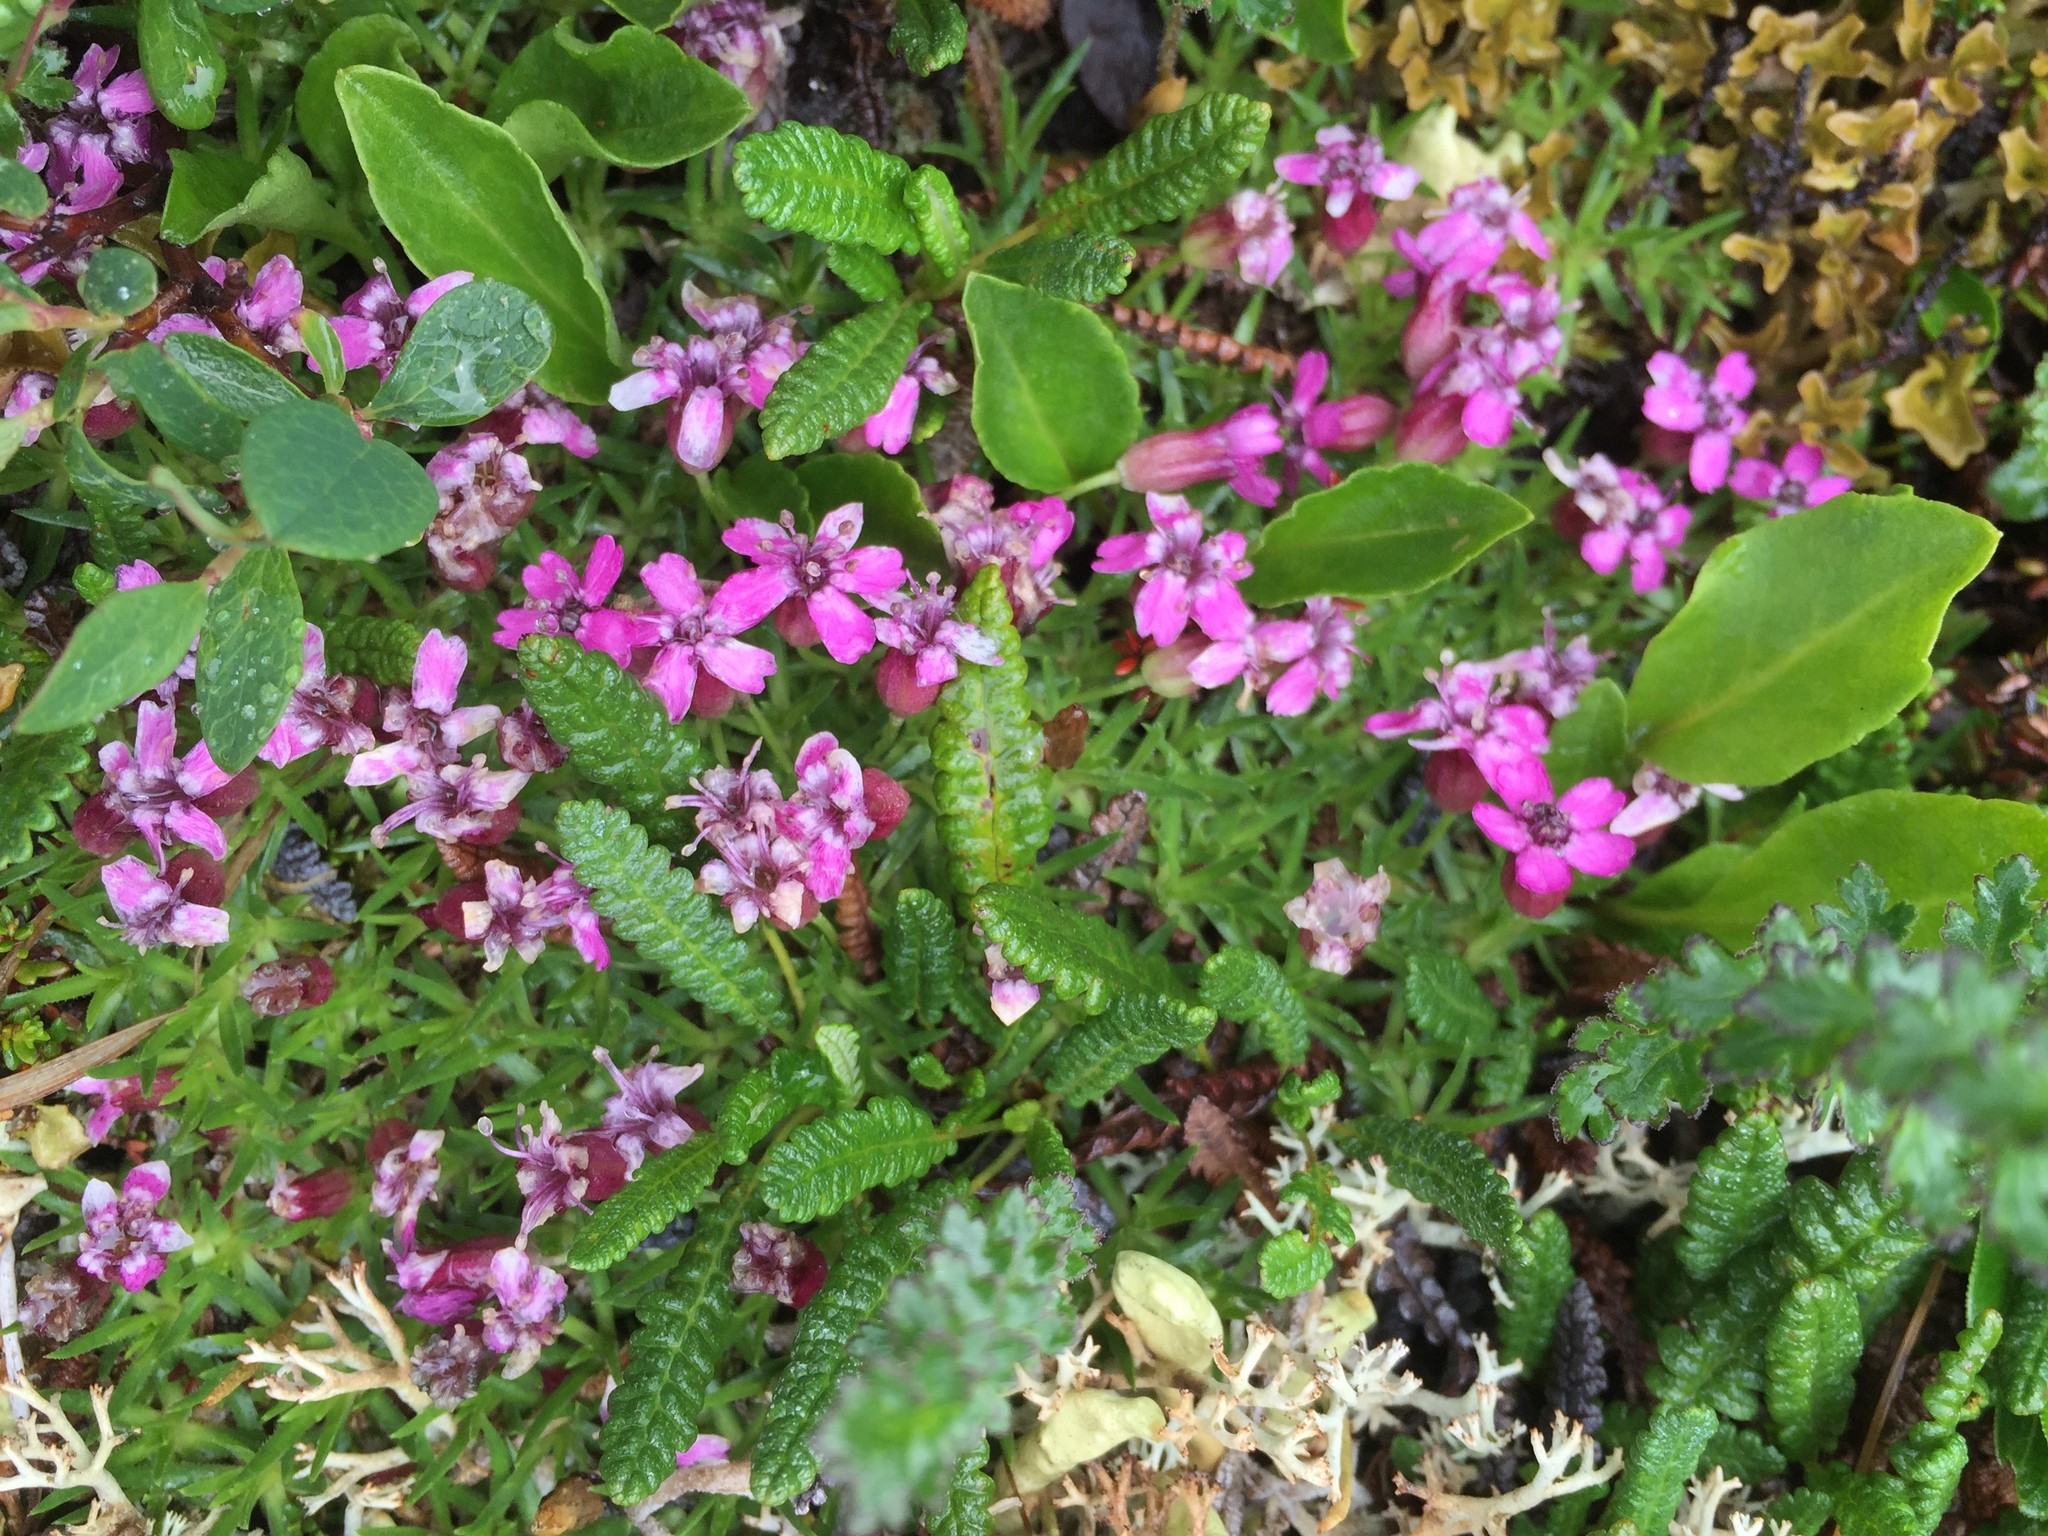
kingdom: Plantae
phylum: Tracheophyta
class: Magnoliopsida
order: Caryophyllales
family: Caryophyllaceae
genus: Silene
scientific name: Silene acaulis
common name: Moss campion
